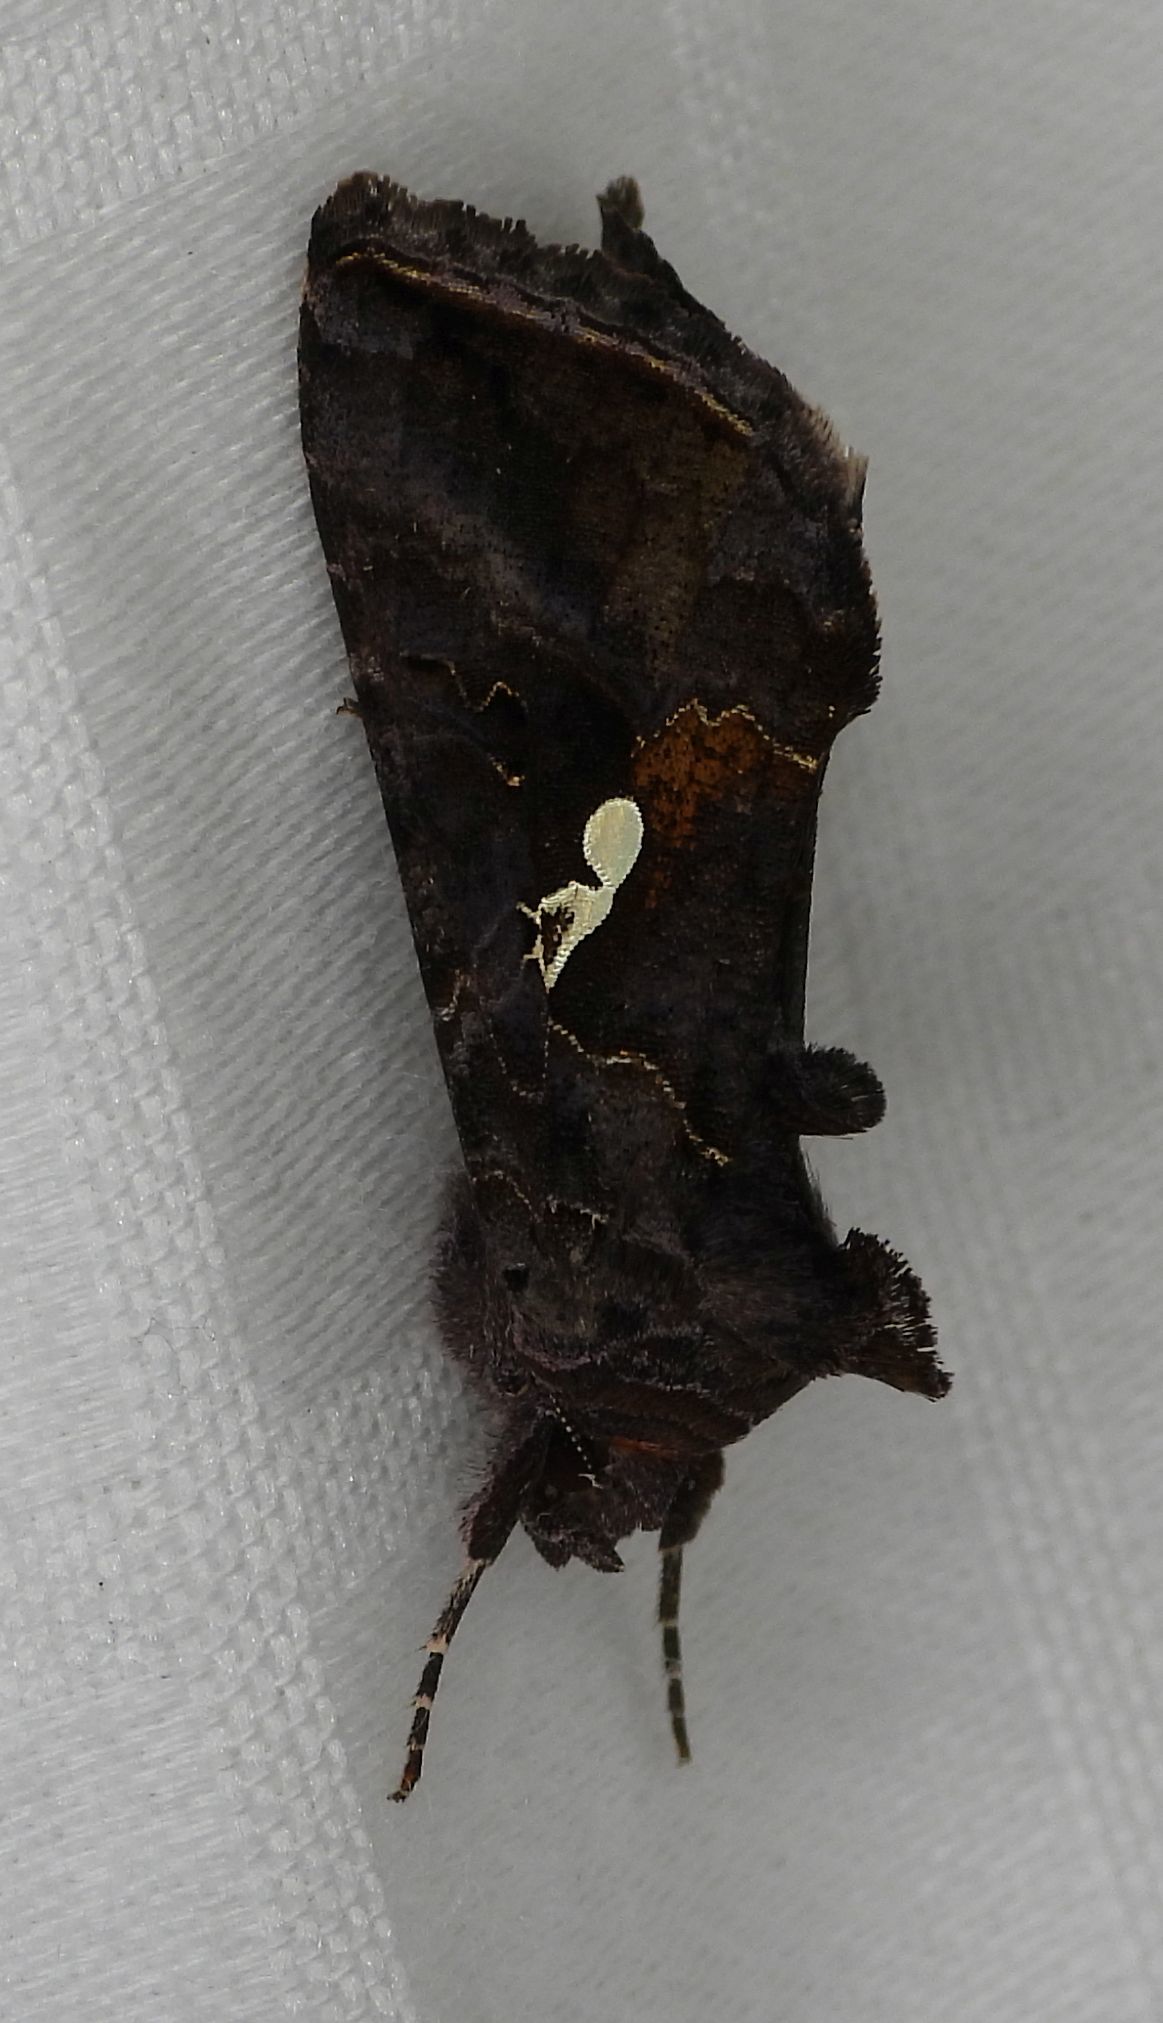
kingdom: Animalia
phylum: Arthropoda
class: Insecta
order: Lepidoptera
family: Noctuidae
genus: Autographa
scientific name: Autographa precationis
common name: Common looper moth
